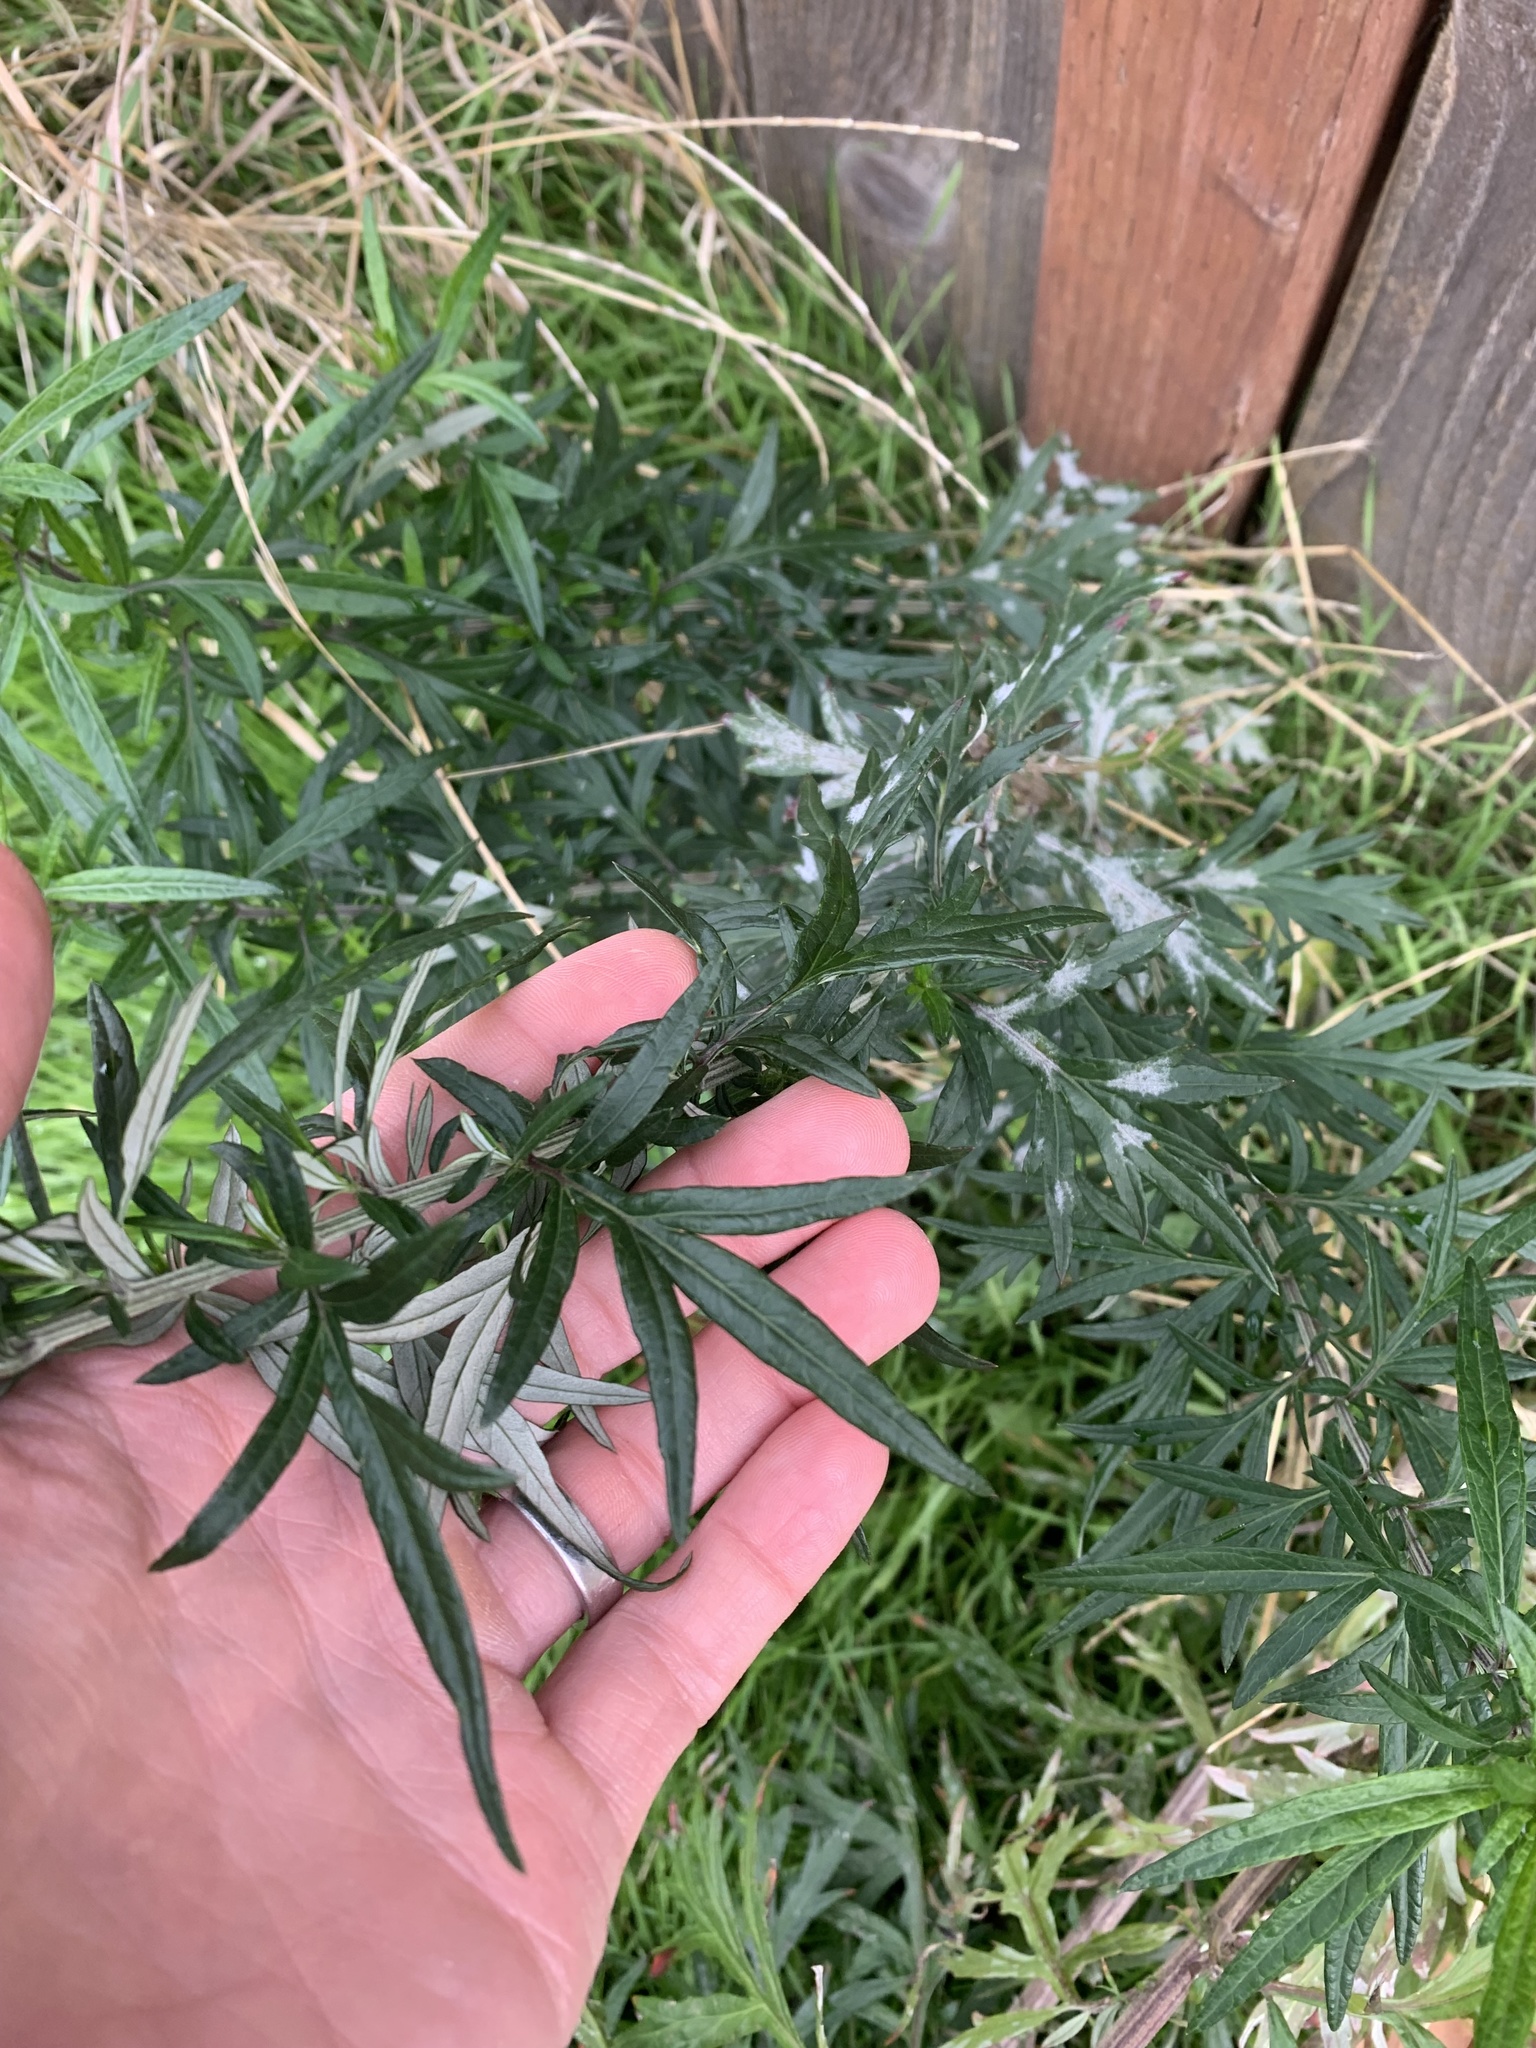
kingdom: Plantae
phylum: Tracheophyta
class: Magnoliopsida
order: Asterales
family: Asteraceae
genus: Artemisia
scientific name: Artemisia vulgaris
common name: Mugwort
